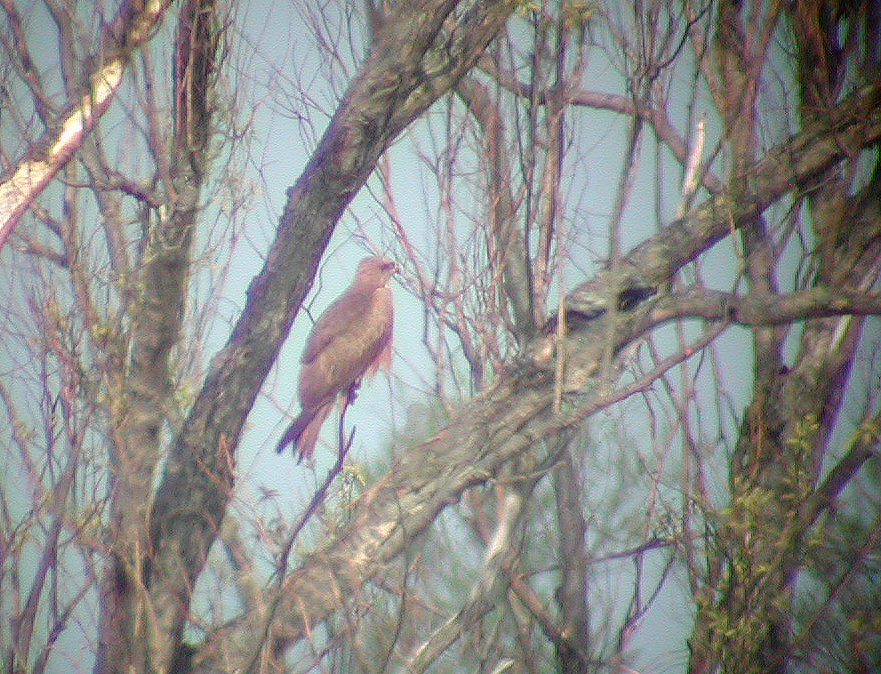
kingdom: Animalia
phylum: Chordata
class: Aves
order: Accipitriformes
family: Accipitridae
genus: Milvus
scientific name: Milvus migrans
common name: Black kite
